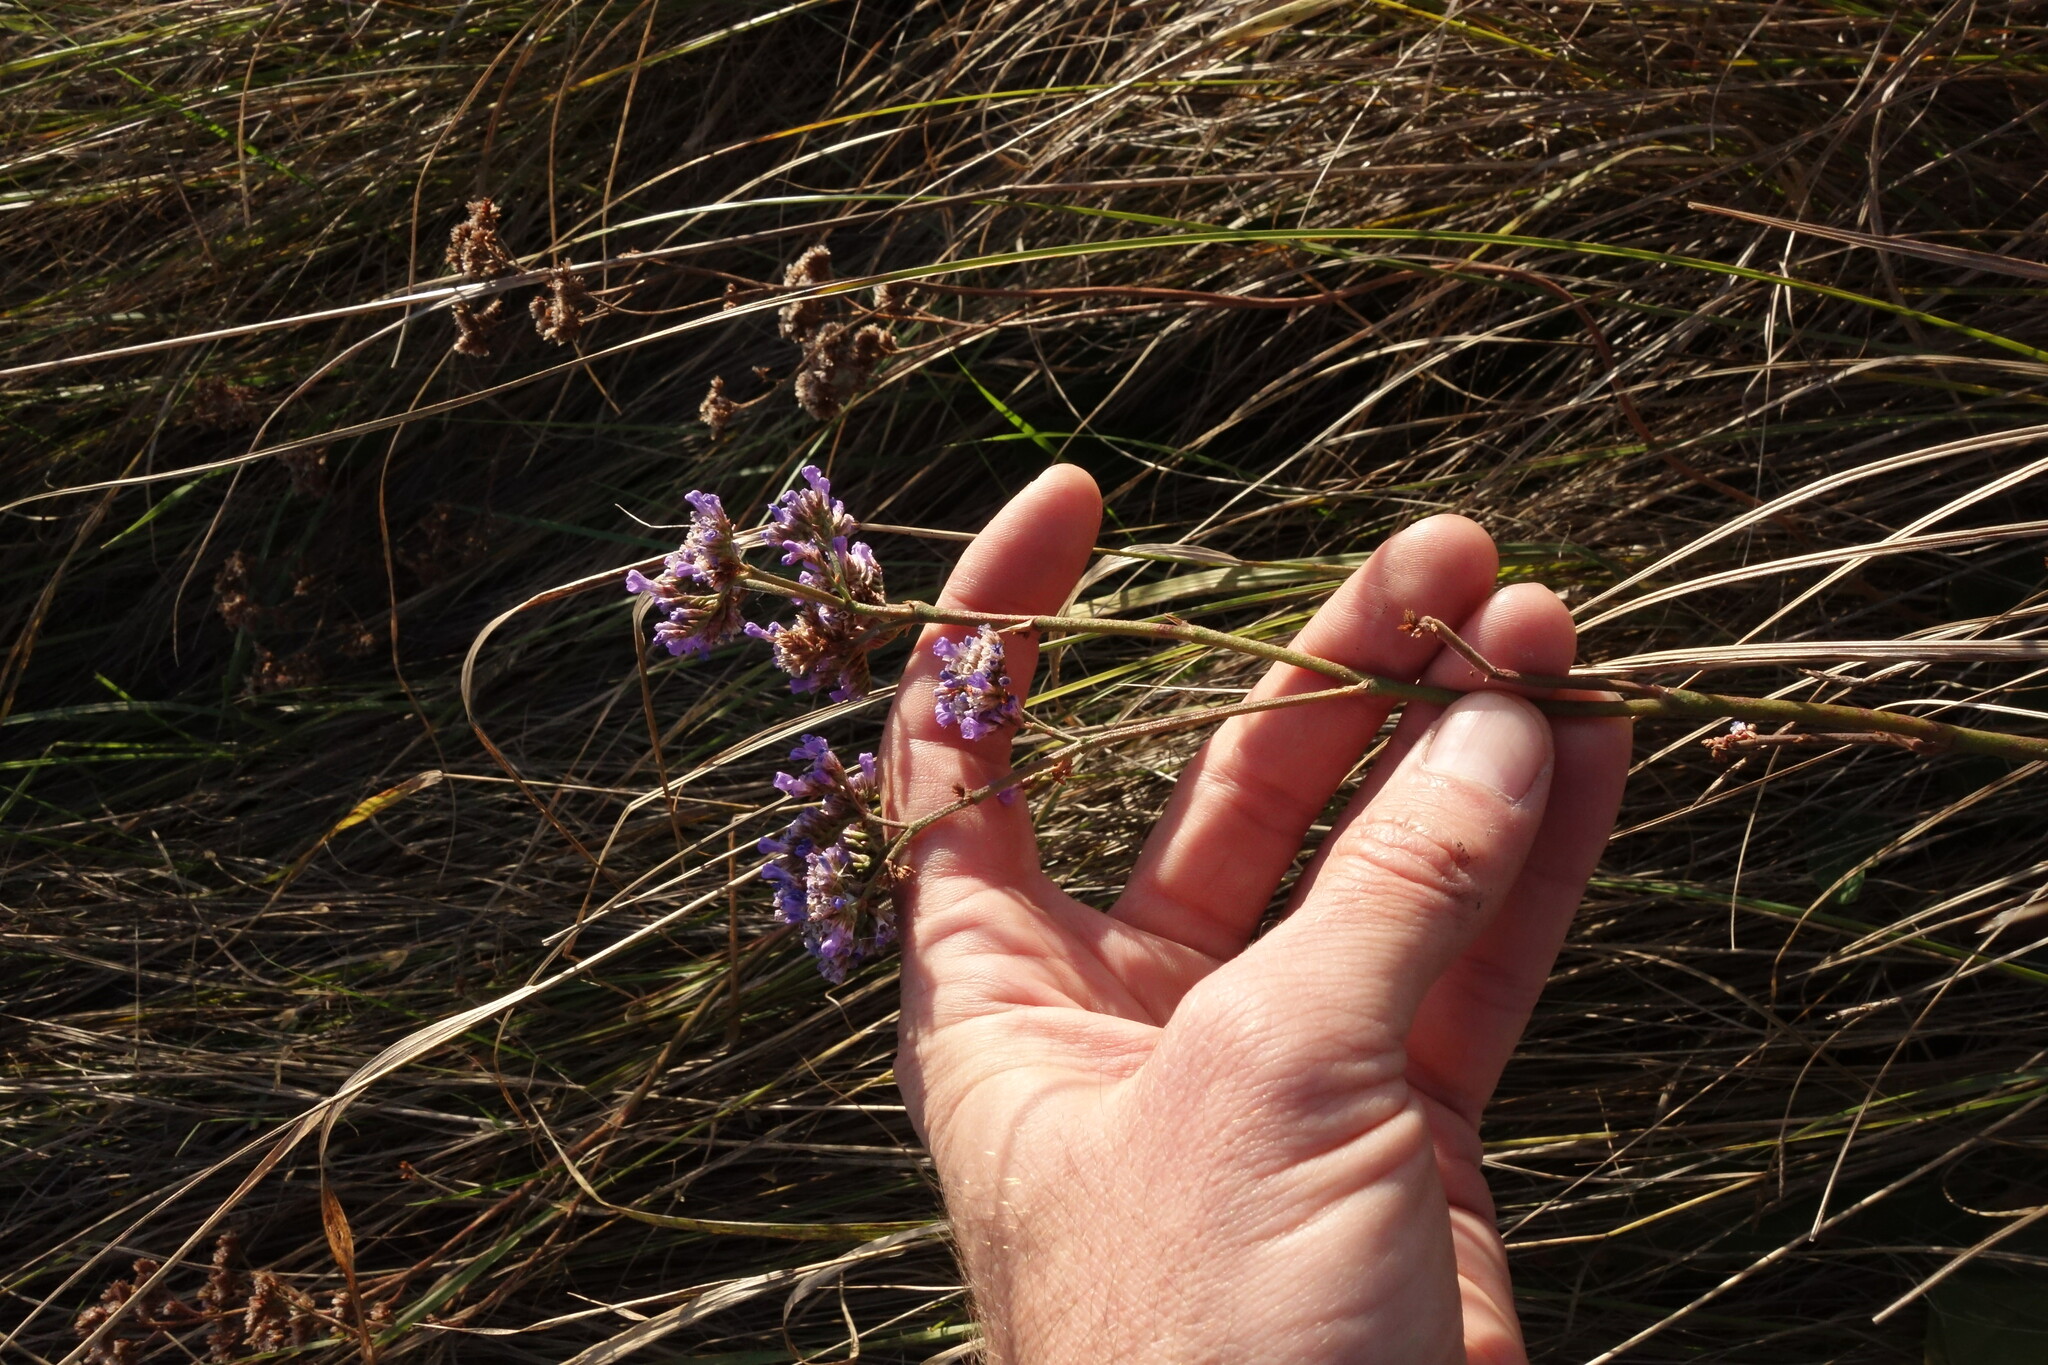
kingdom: Plantae
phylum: Tracheophyta
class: Magnoliopsida
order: Caryophyllales
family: Plumbaginaceae
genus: Limonium
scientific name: Limonium tomentellum
